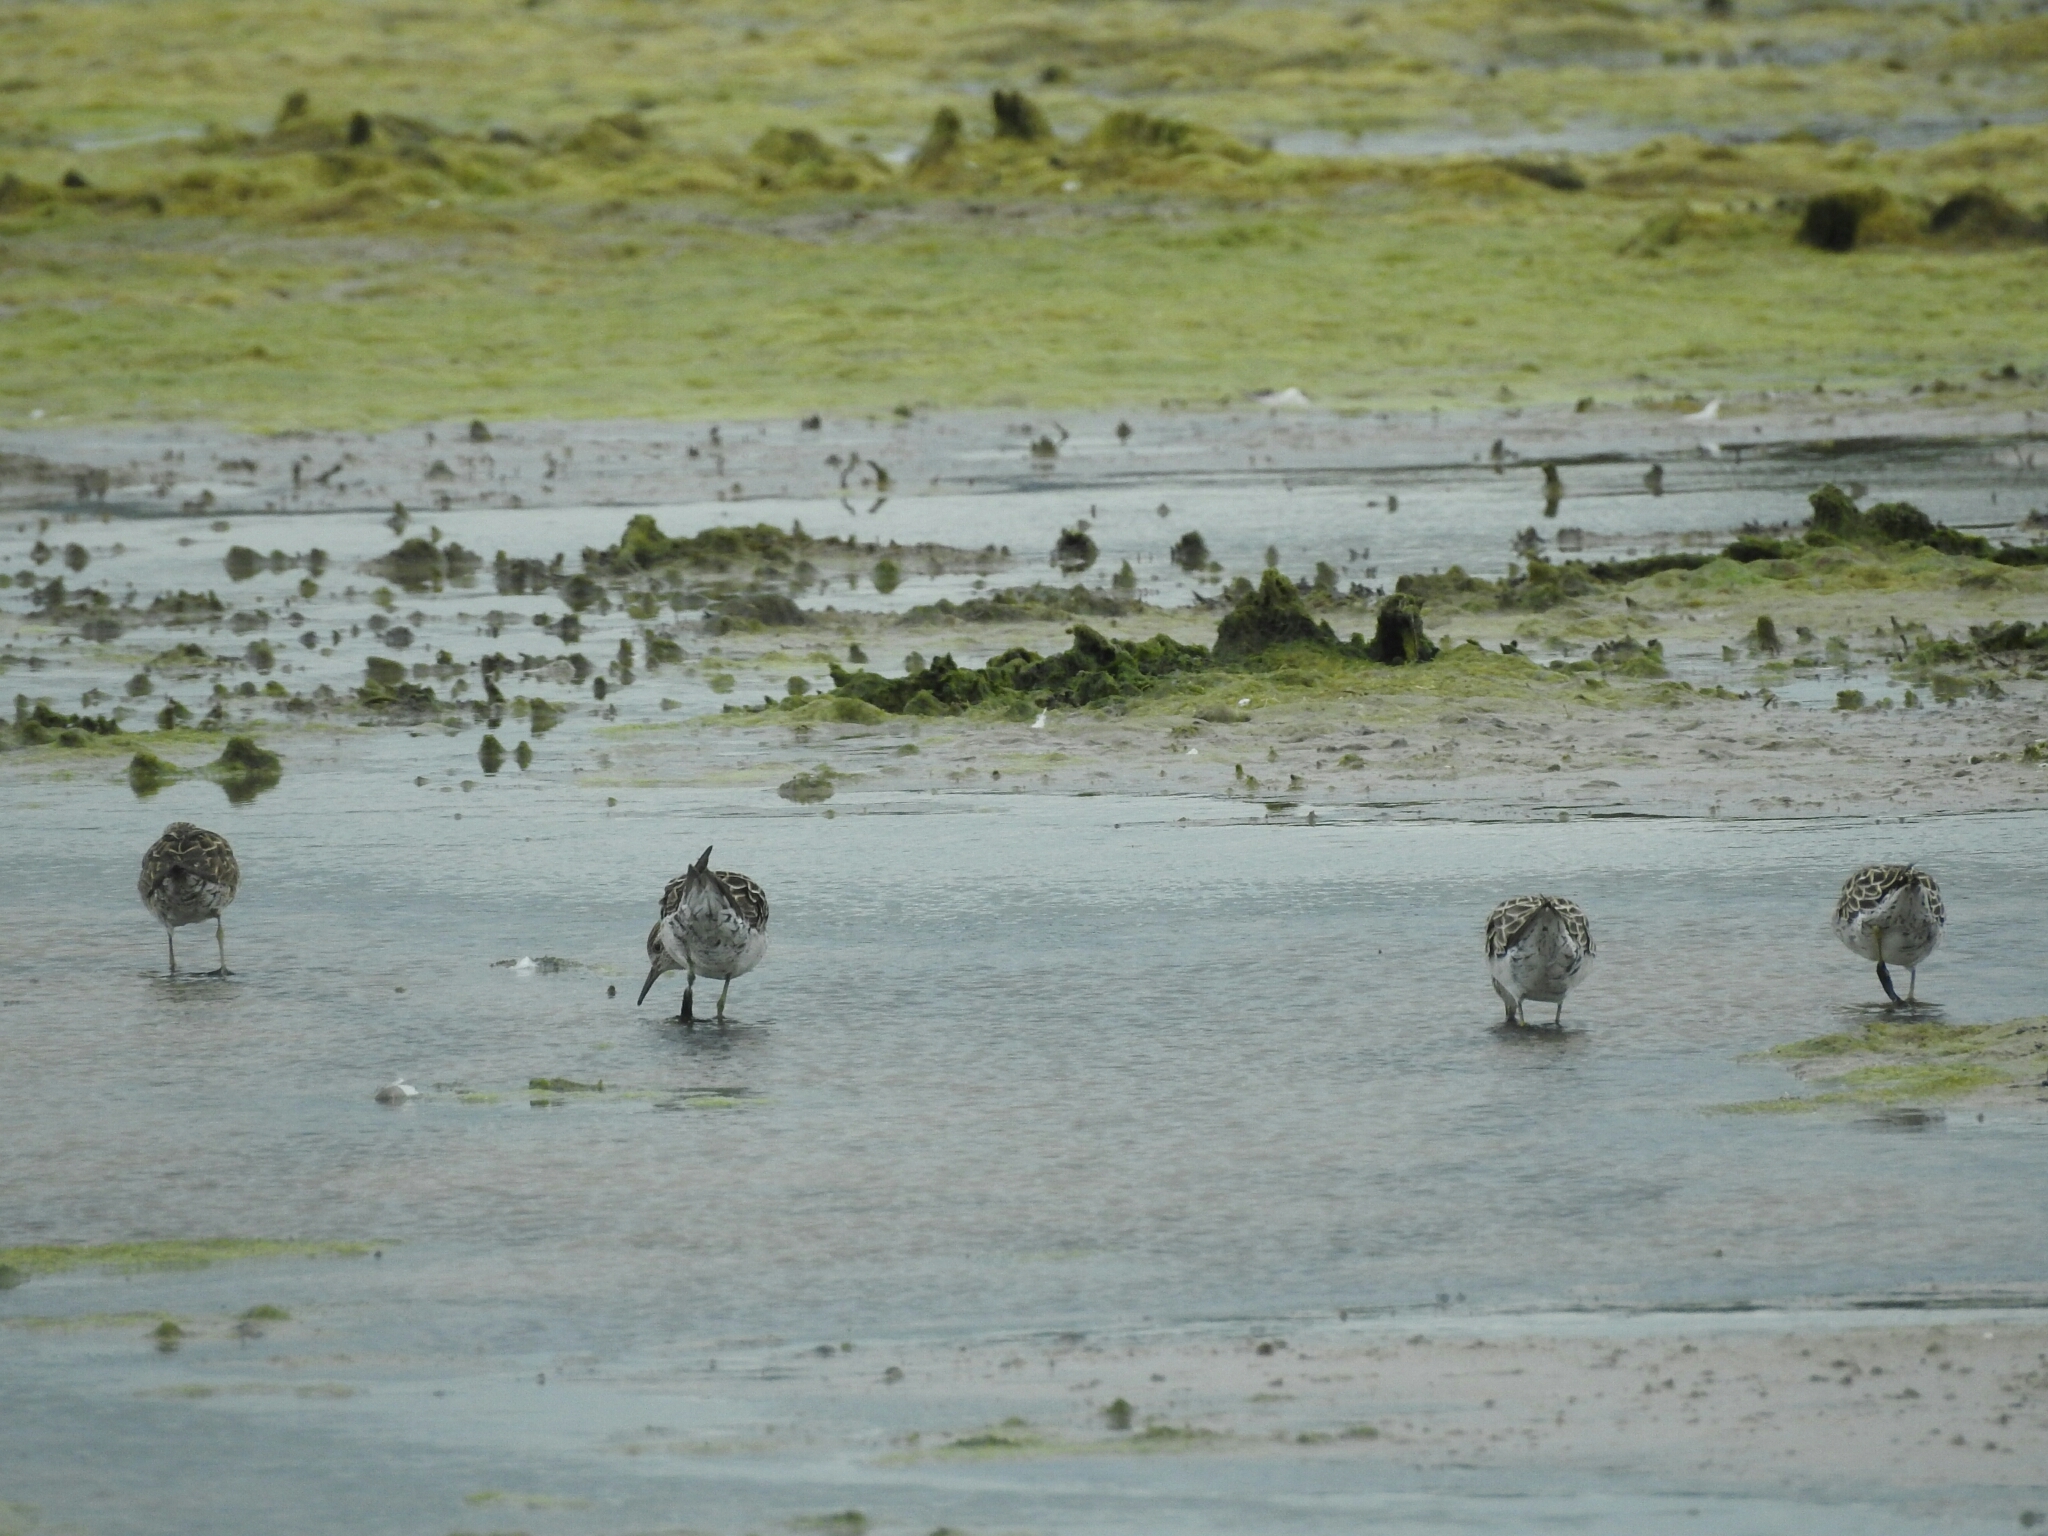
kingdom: Animalia
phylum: Chordata
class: Aves
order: Charadriiformes
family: Scolopacidae
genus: Calidris
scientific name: Calidris acuminata
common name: Sharp-tailed sandpiper
